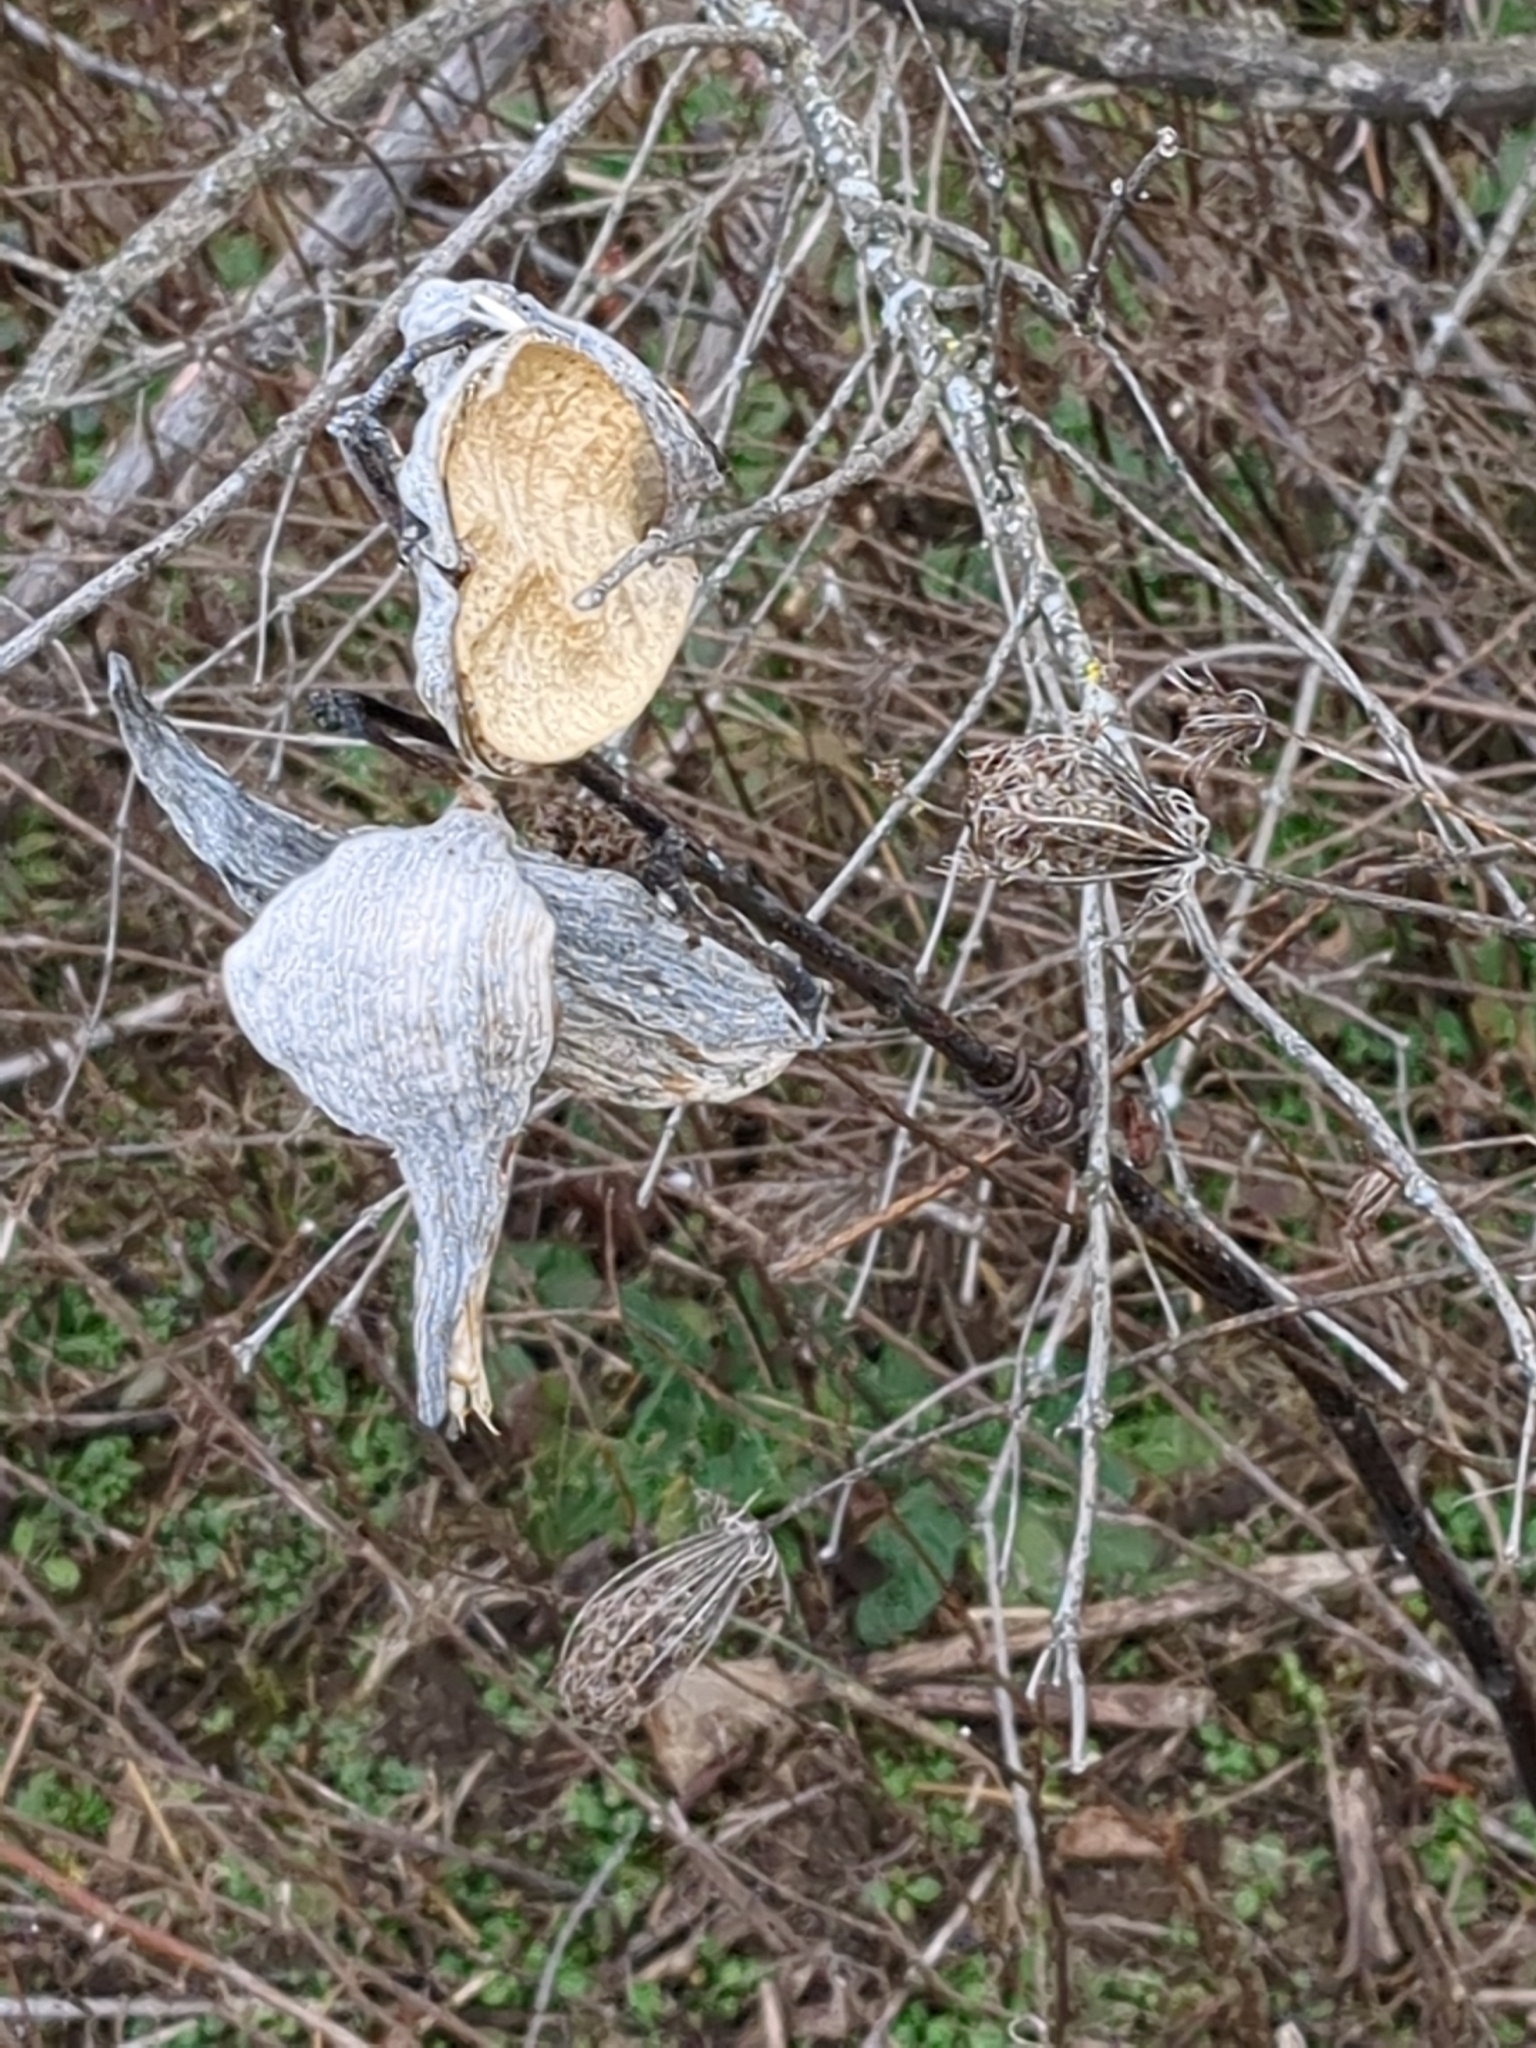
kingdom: Plantae
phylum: Tracheophyta
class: Magnoliopsida
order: Gentianales
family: Apocynaceae
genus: Asclepias
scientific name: Asclepias syriaca
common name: Common milkweed
